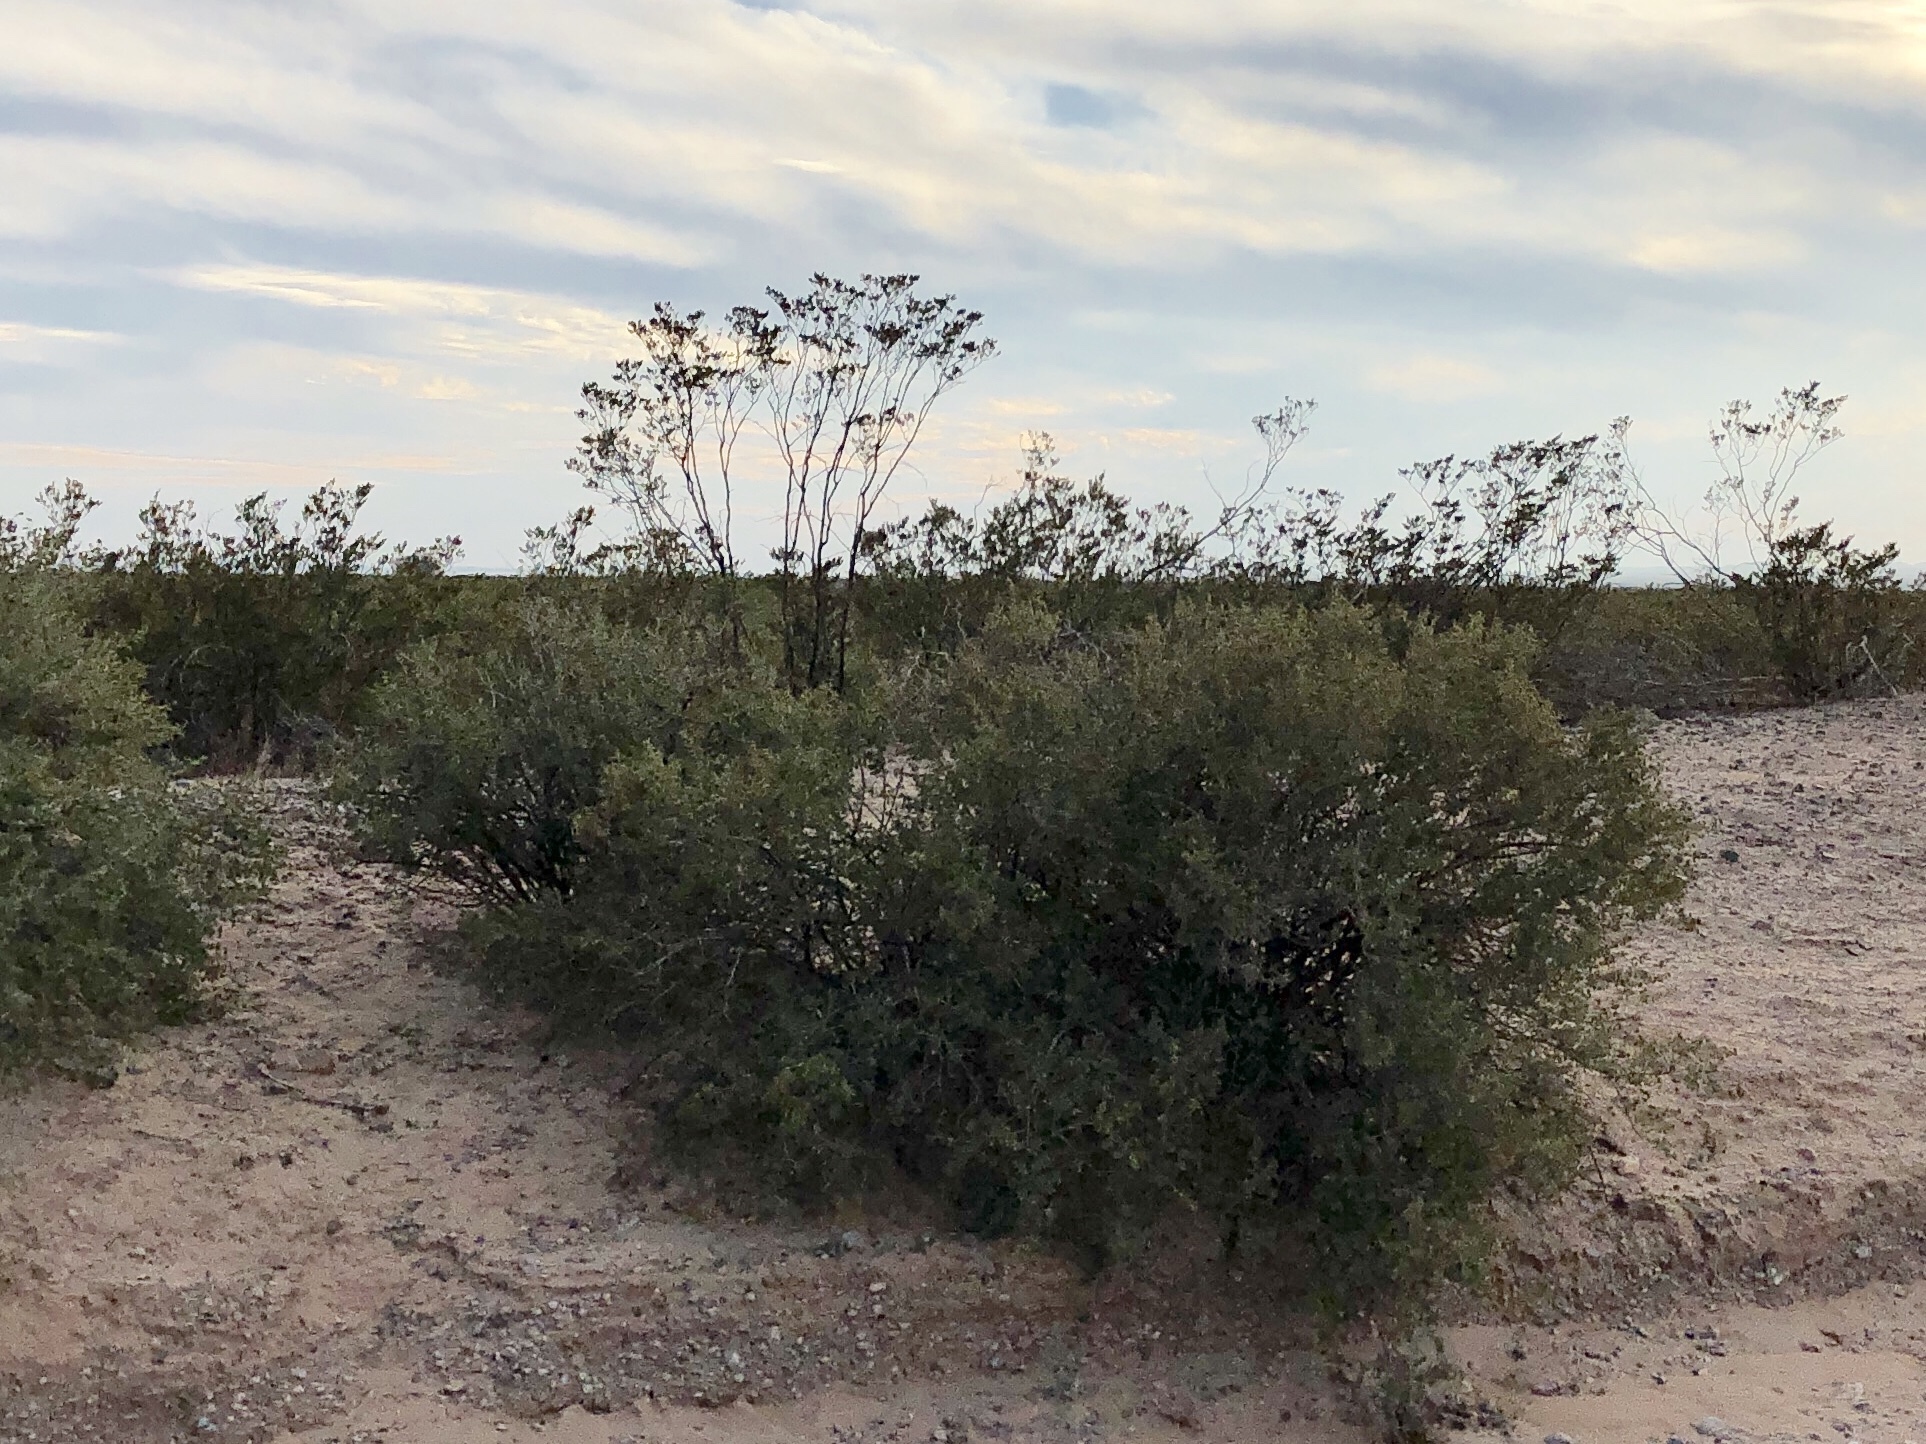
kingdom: Plantae
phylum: Tracheophyta
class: Magnoliopsida
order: Zygophyllales
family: Zygophyllaceae
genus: Larrea
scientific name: Larrea tridentata
